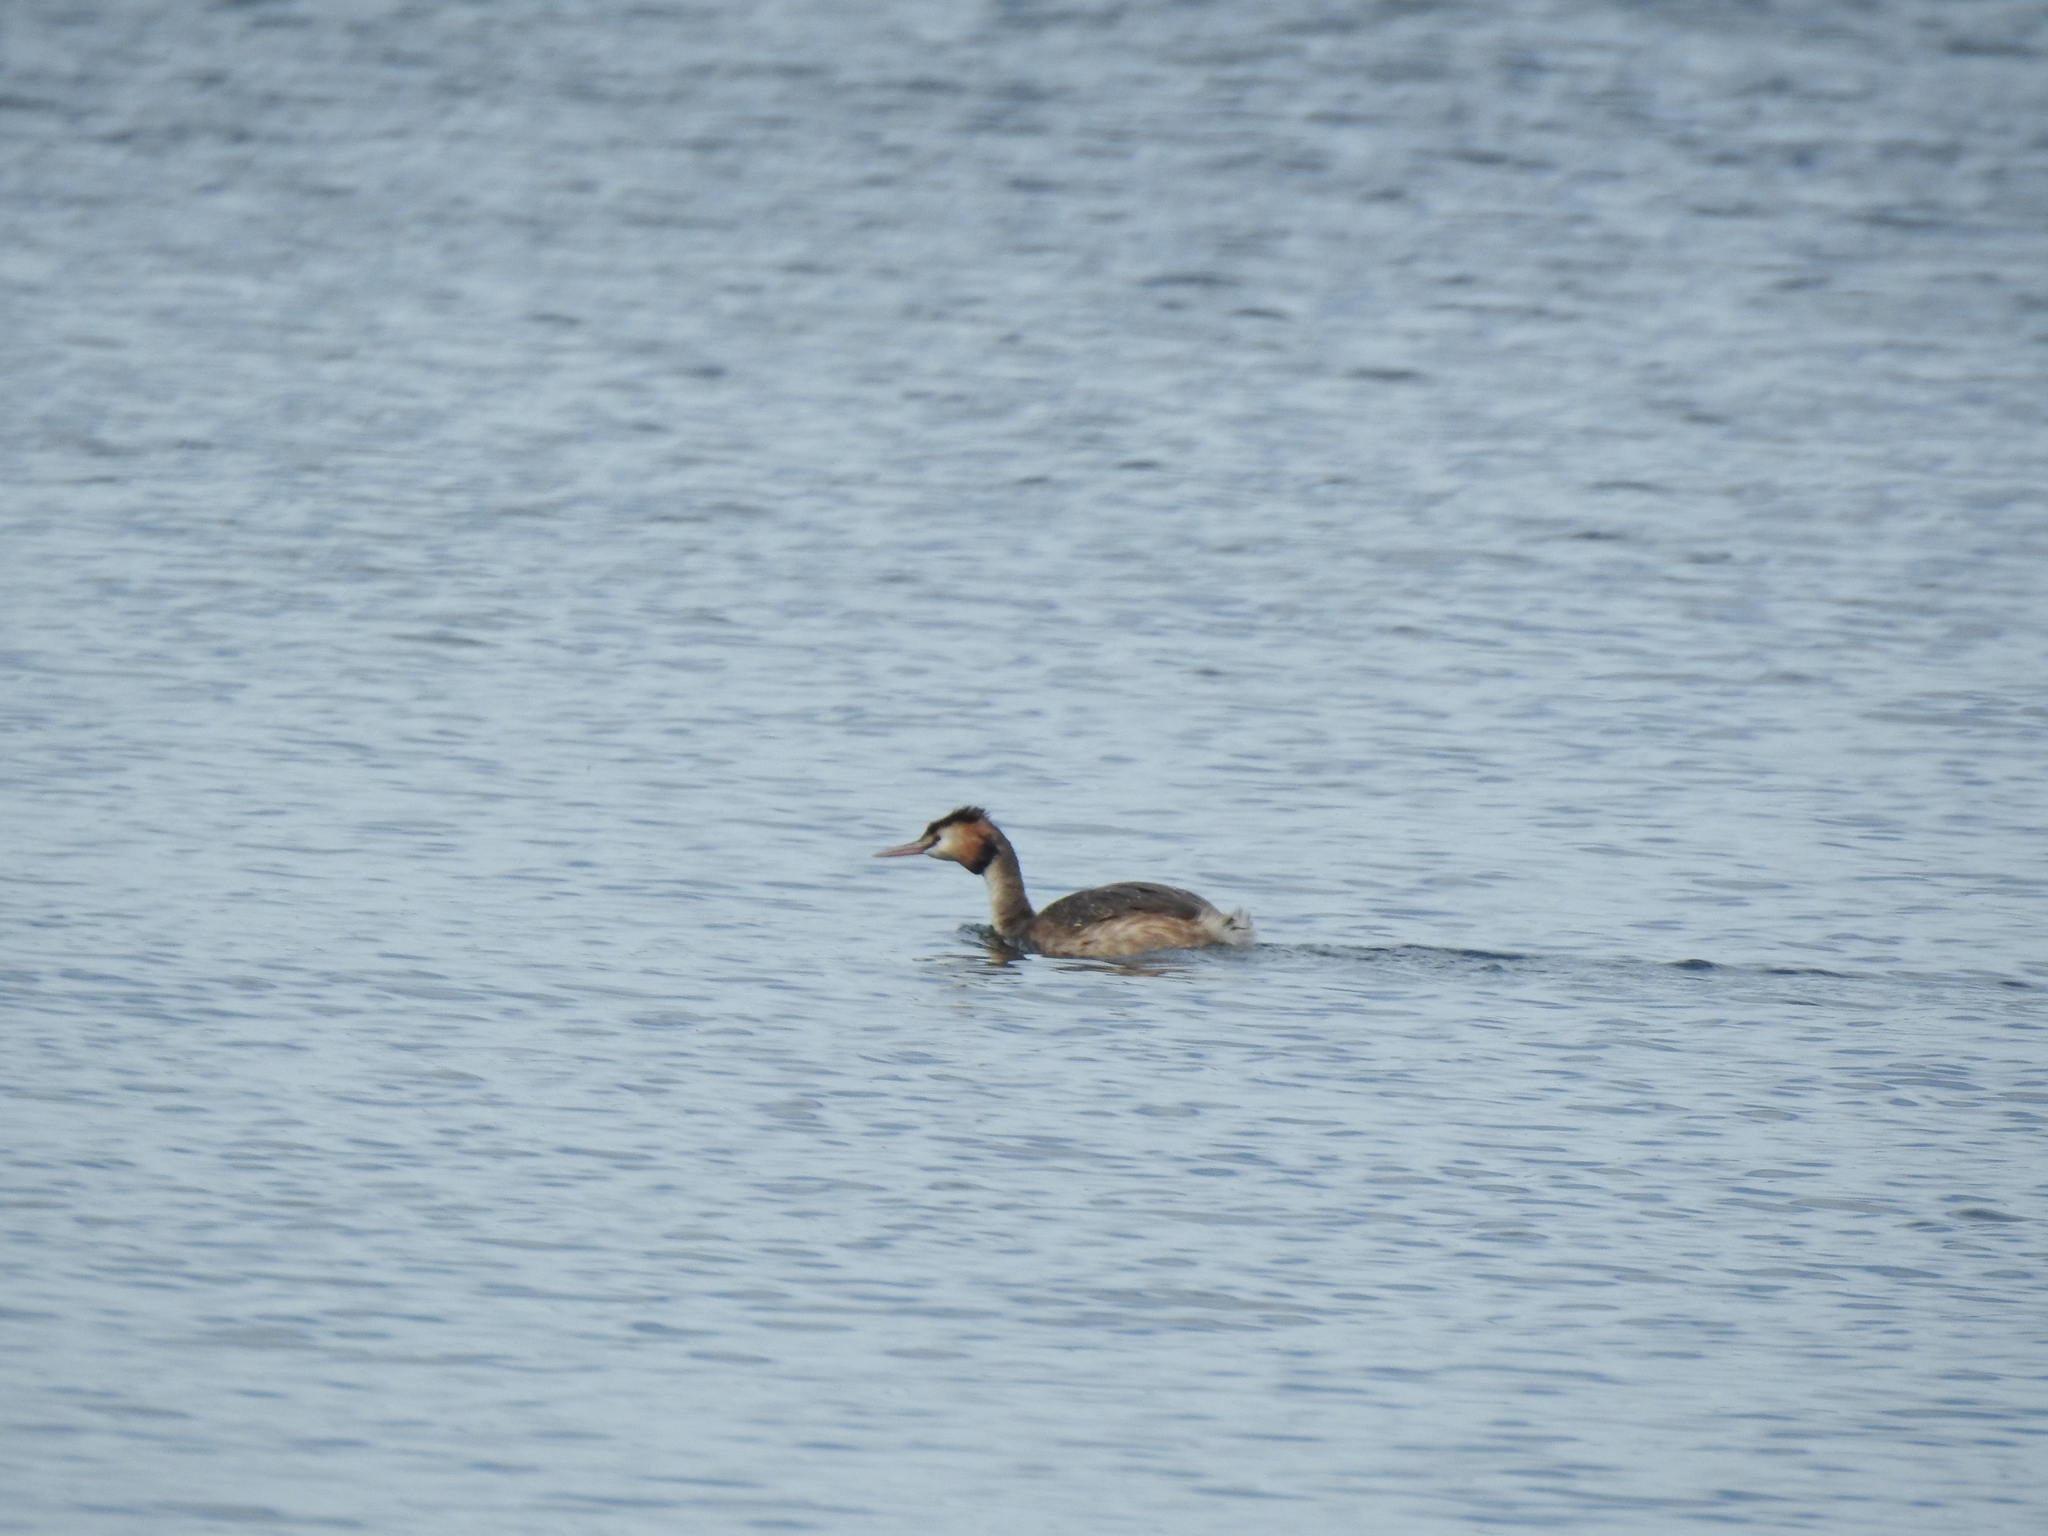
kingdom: Animalia
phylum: Chordata
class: Aves
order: Podicipediformes
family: Podicipedidae
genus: Podiceps
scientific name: Podiceps cristatus
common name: Great crested grebe
